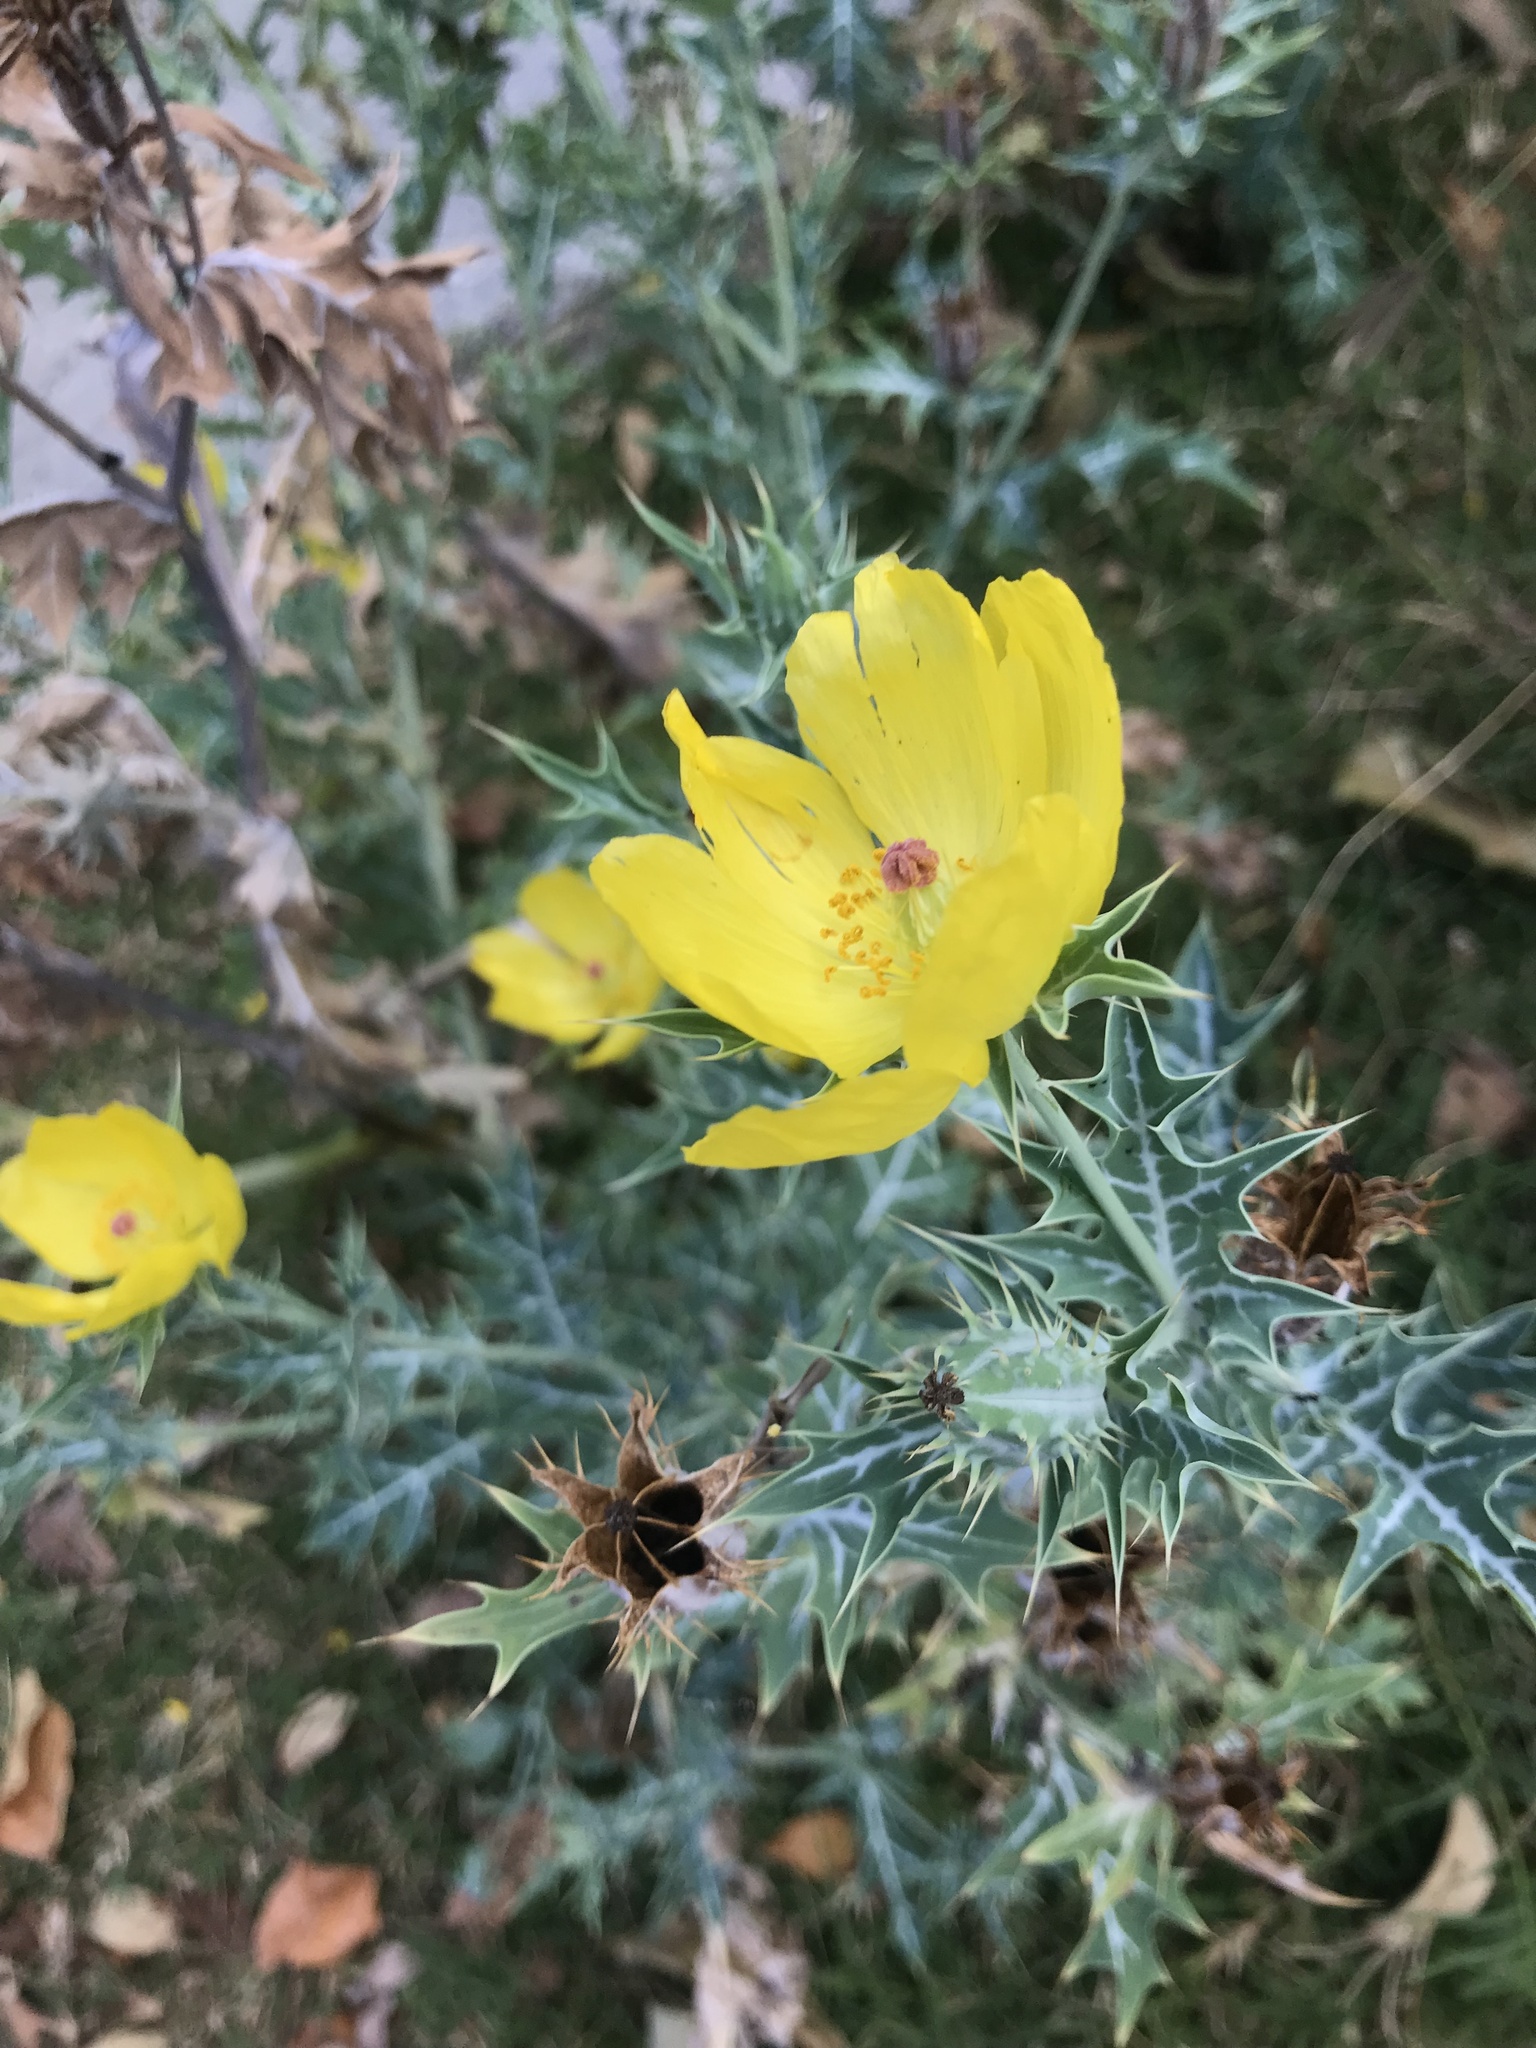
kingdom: Plantae
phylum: Tracheophyta
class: Magnoliopsida
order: Ranunculales
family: Papaveraceae
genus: Argemone
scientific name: Argemone mexicana
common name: Mexican poppy
